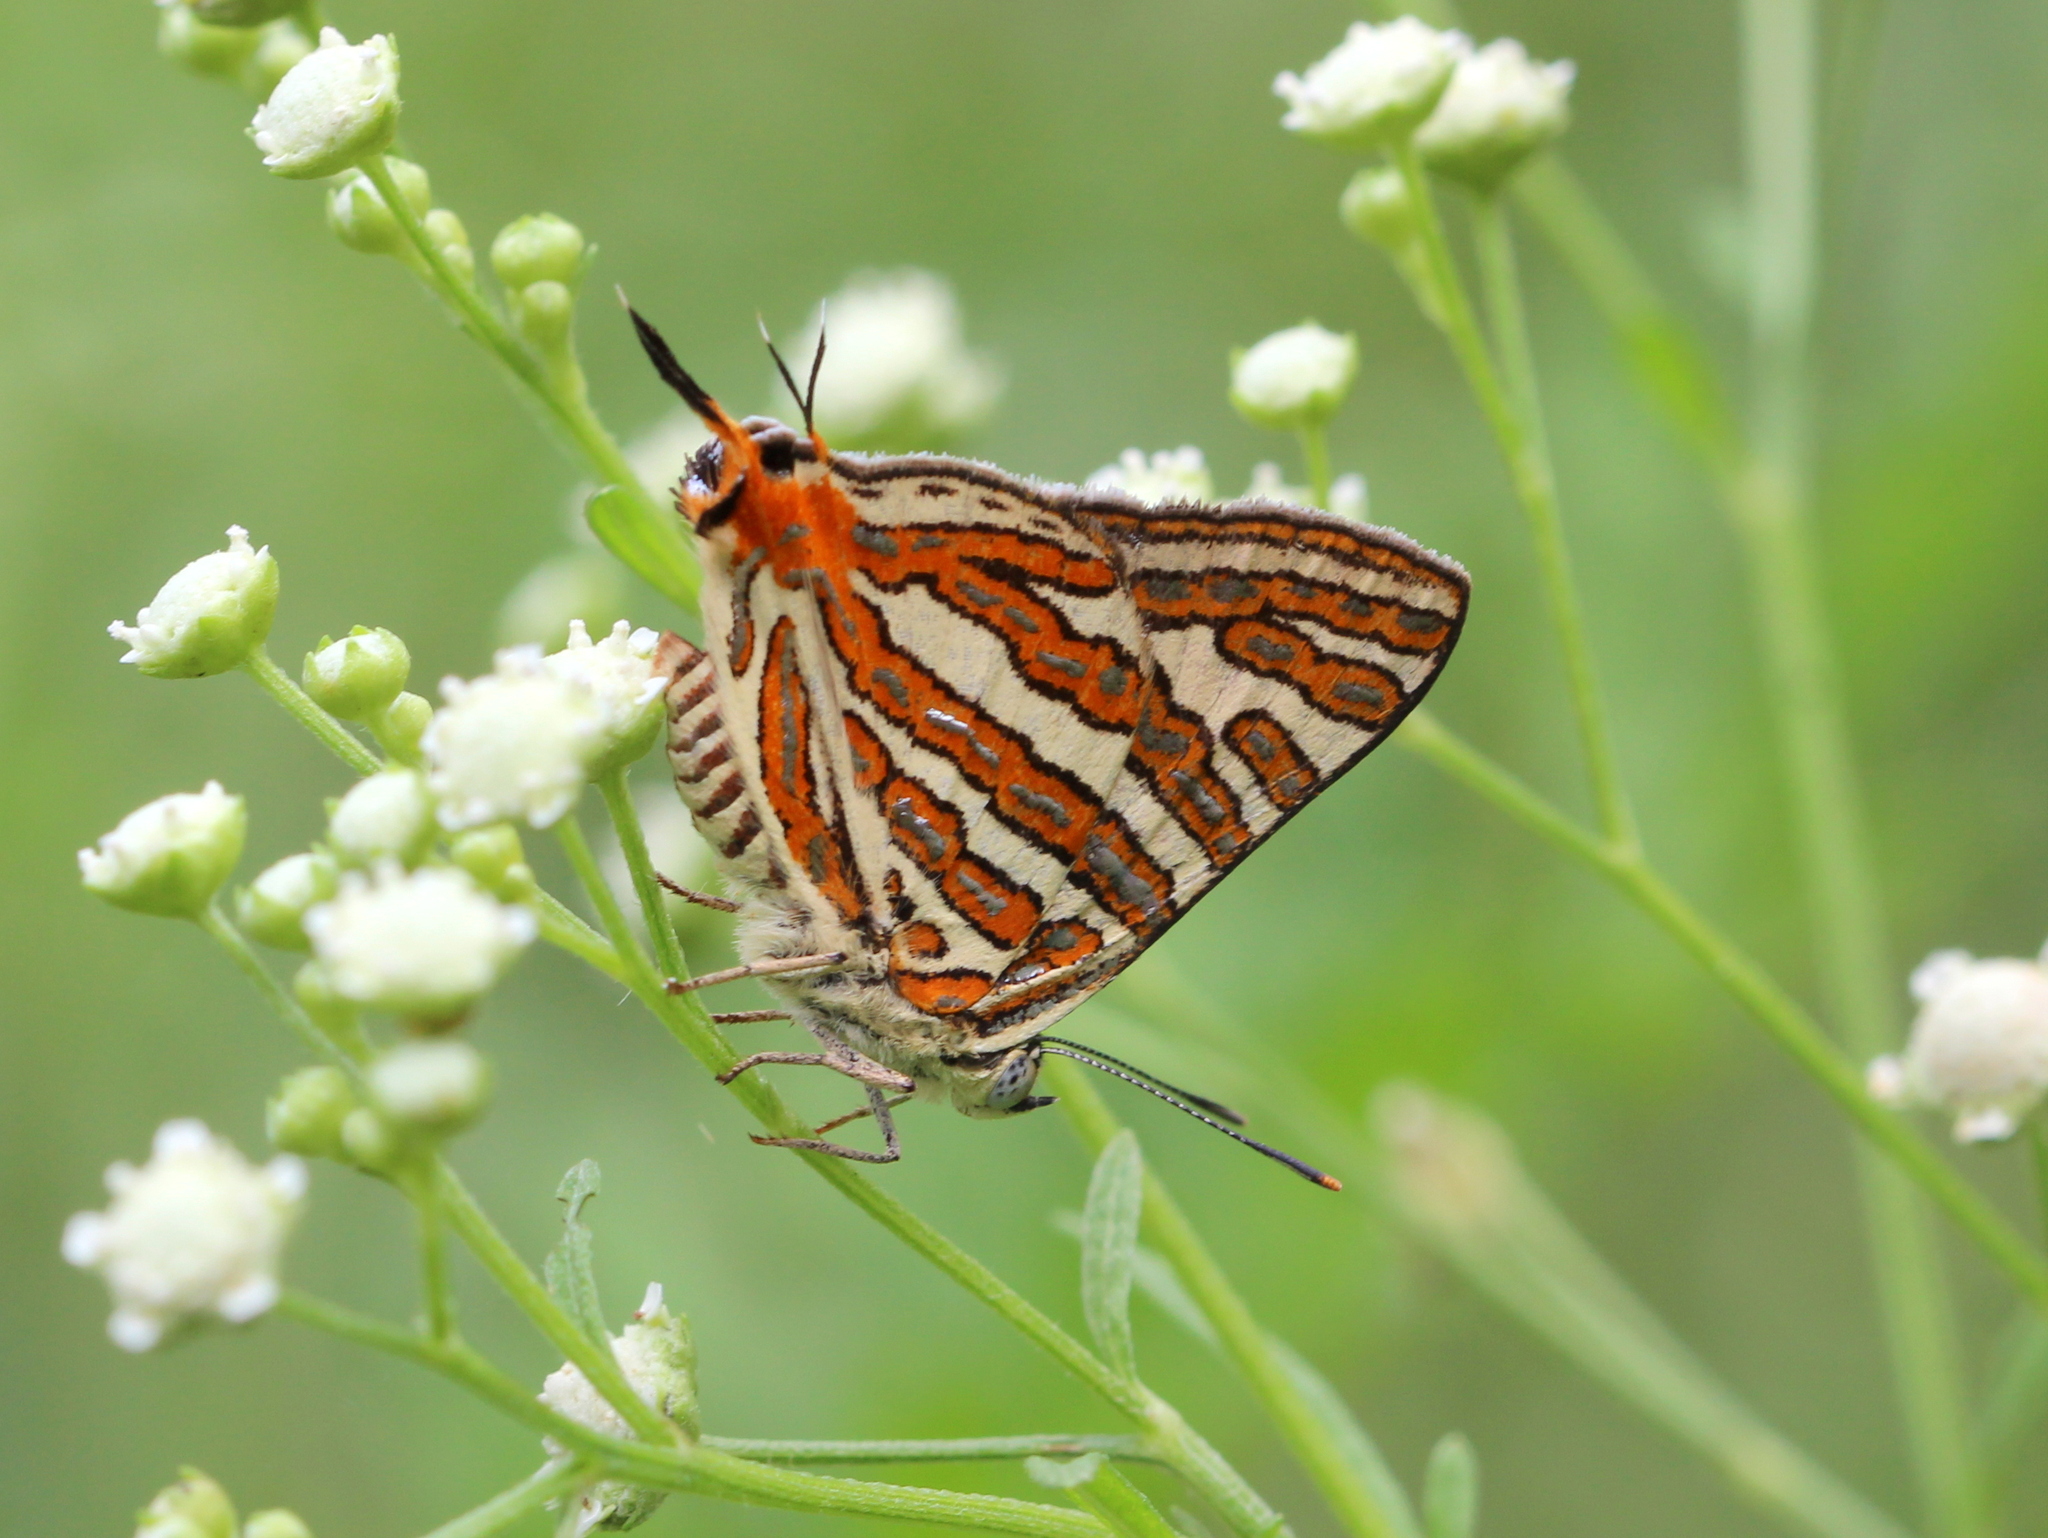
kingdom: Animalia
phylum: Arthropoda
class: Insecta
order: Lepidoptera
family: Lycaenidae
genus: Cigaritis
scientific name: Cigaritis vulcanus
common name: Common silverline
